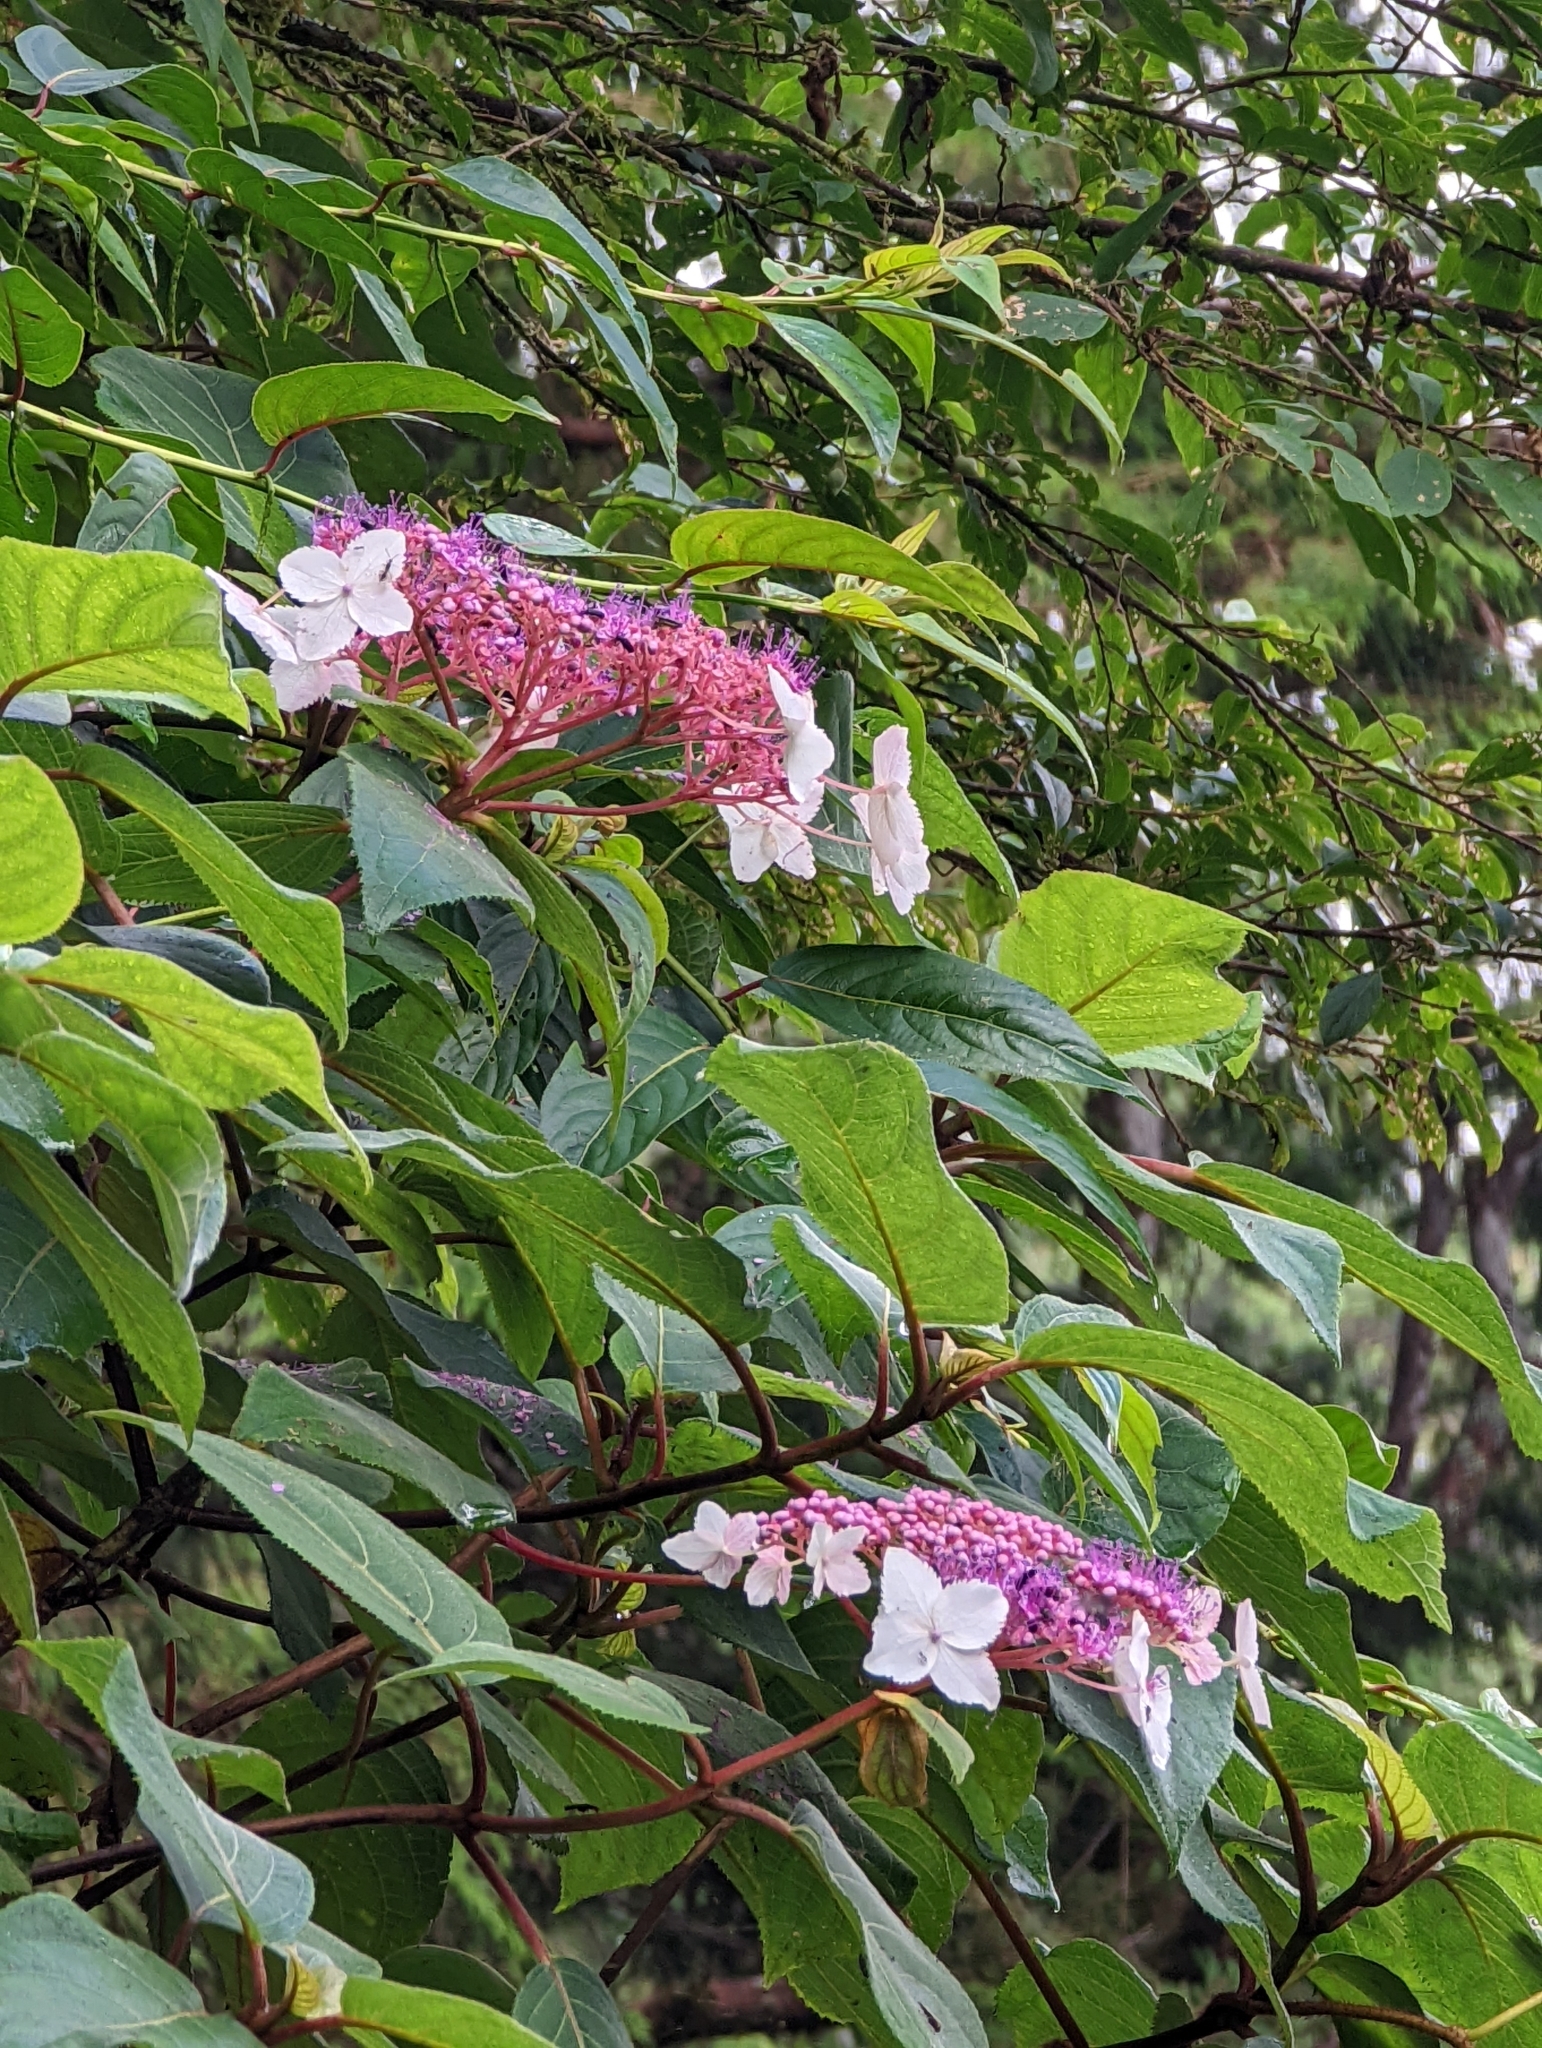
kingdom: Plantae
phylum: Tracheophyta
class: Magnoliopsida
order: Cornales
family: Hydrangeaceae
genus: Hydrangea
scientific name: Hydrangea aspera
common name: Rough-leaf hydrangea
